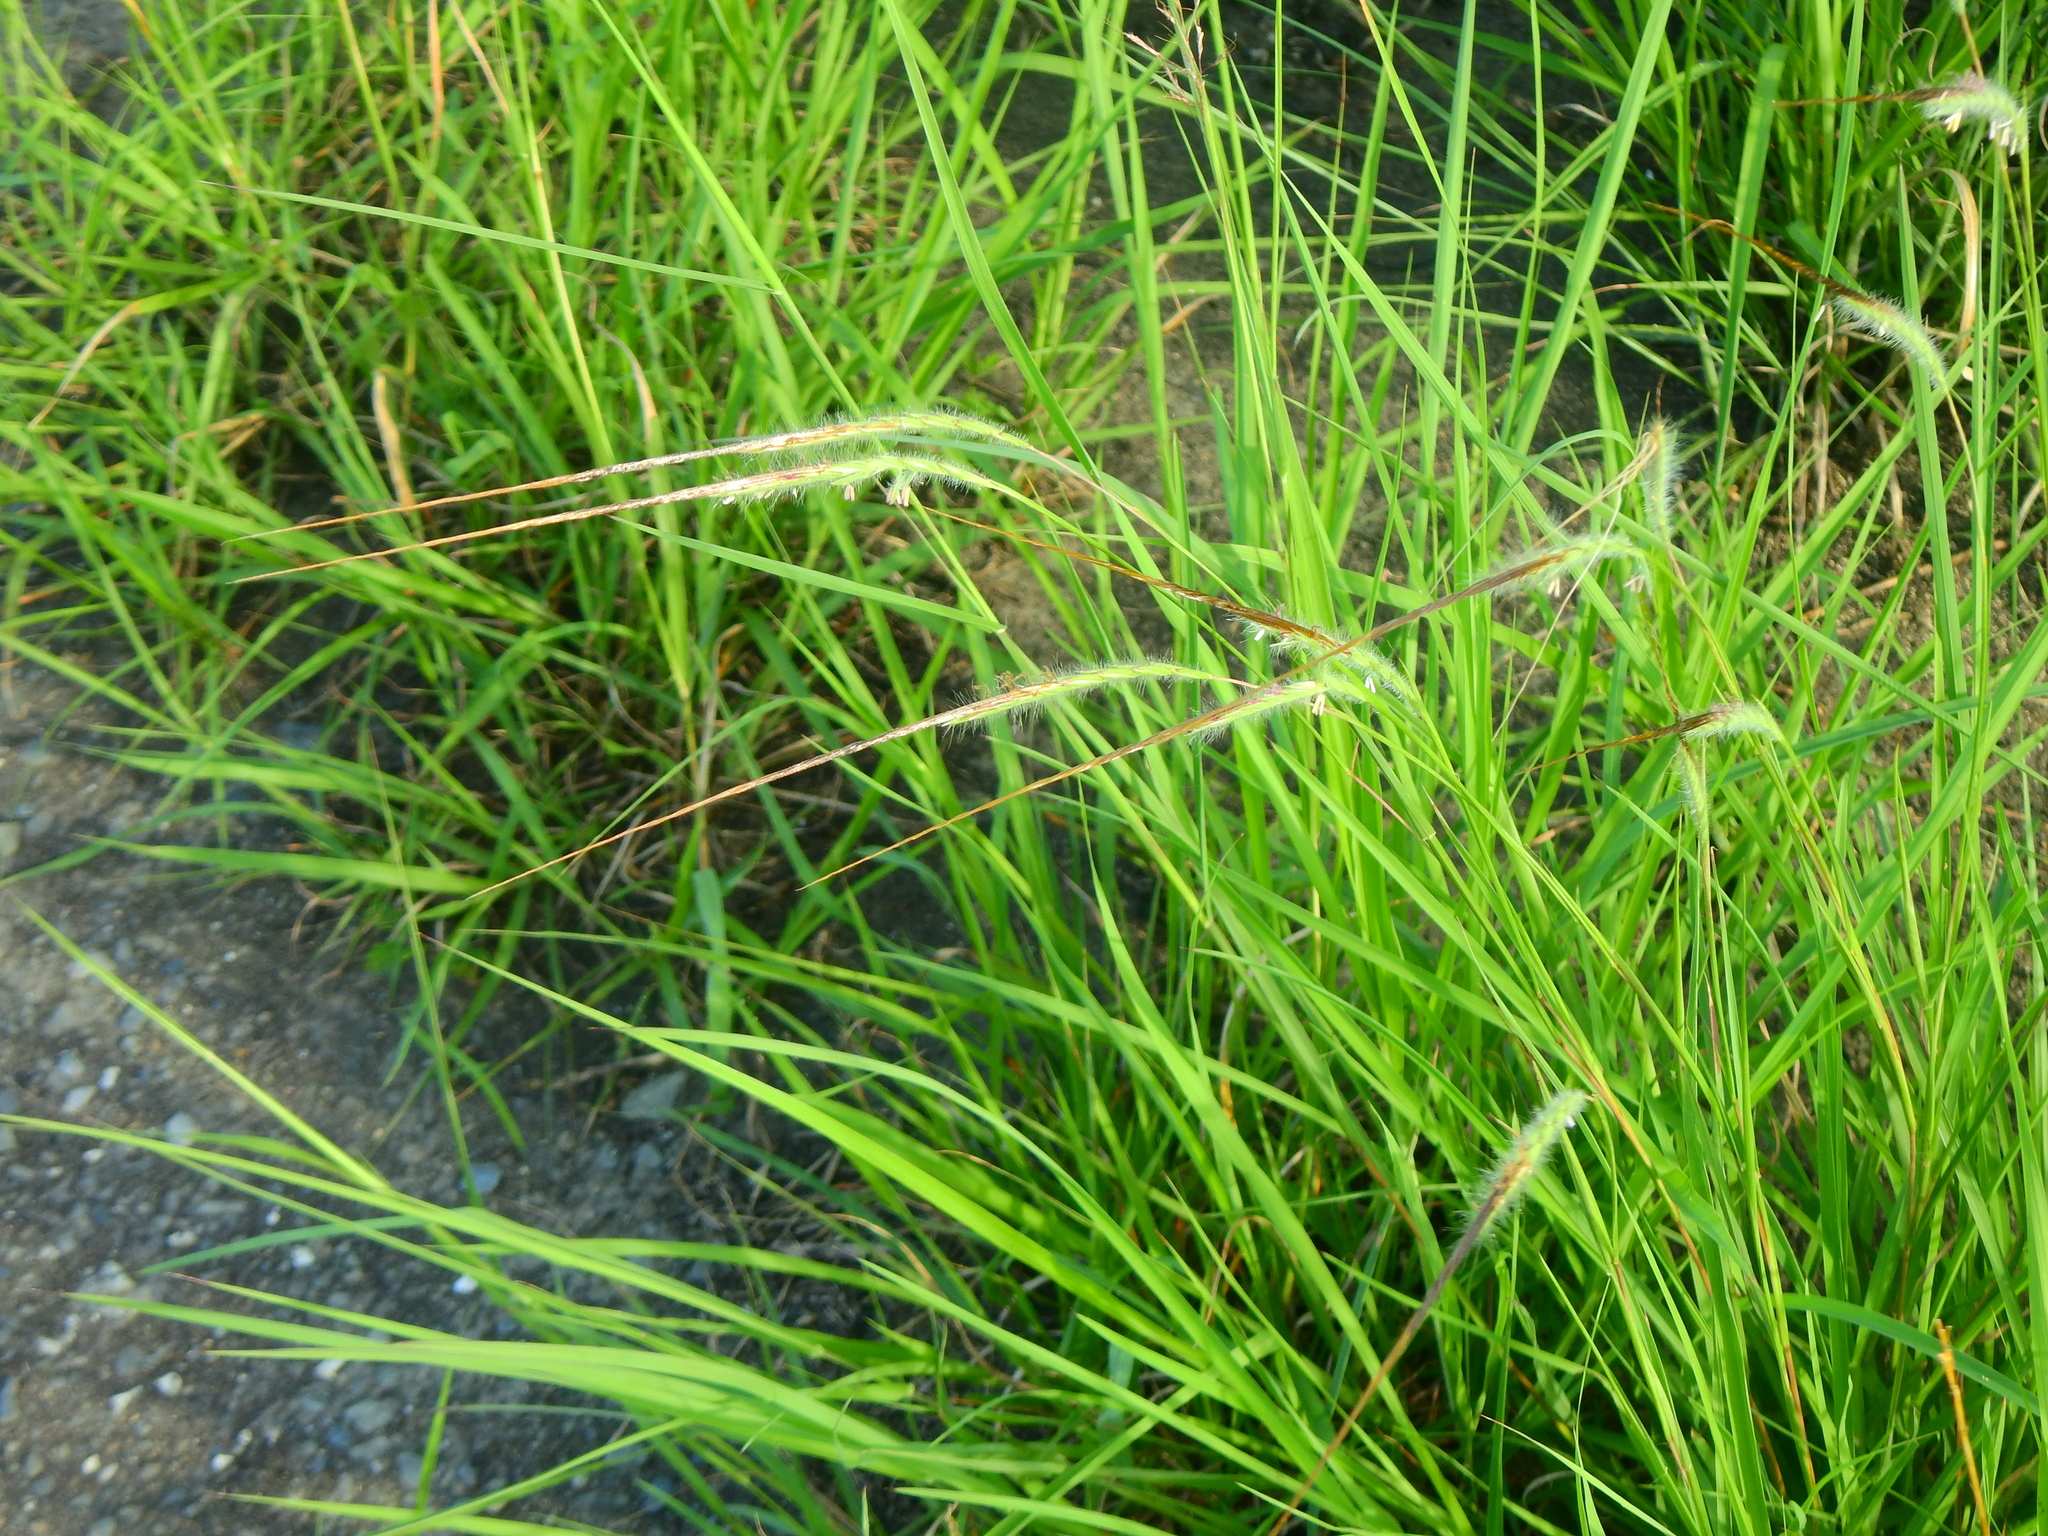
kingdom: Plantae
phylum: Tracheophyta
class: Liliopsida
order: Poales
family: Poaceae
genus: Heteropogon
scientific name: Heteropogon contortus
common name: Tanglehead
